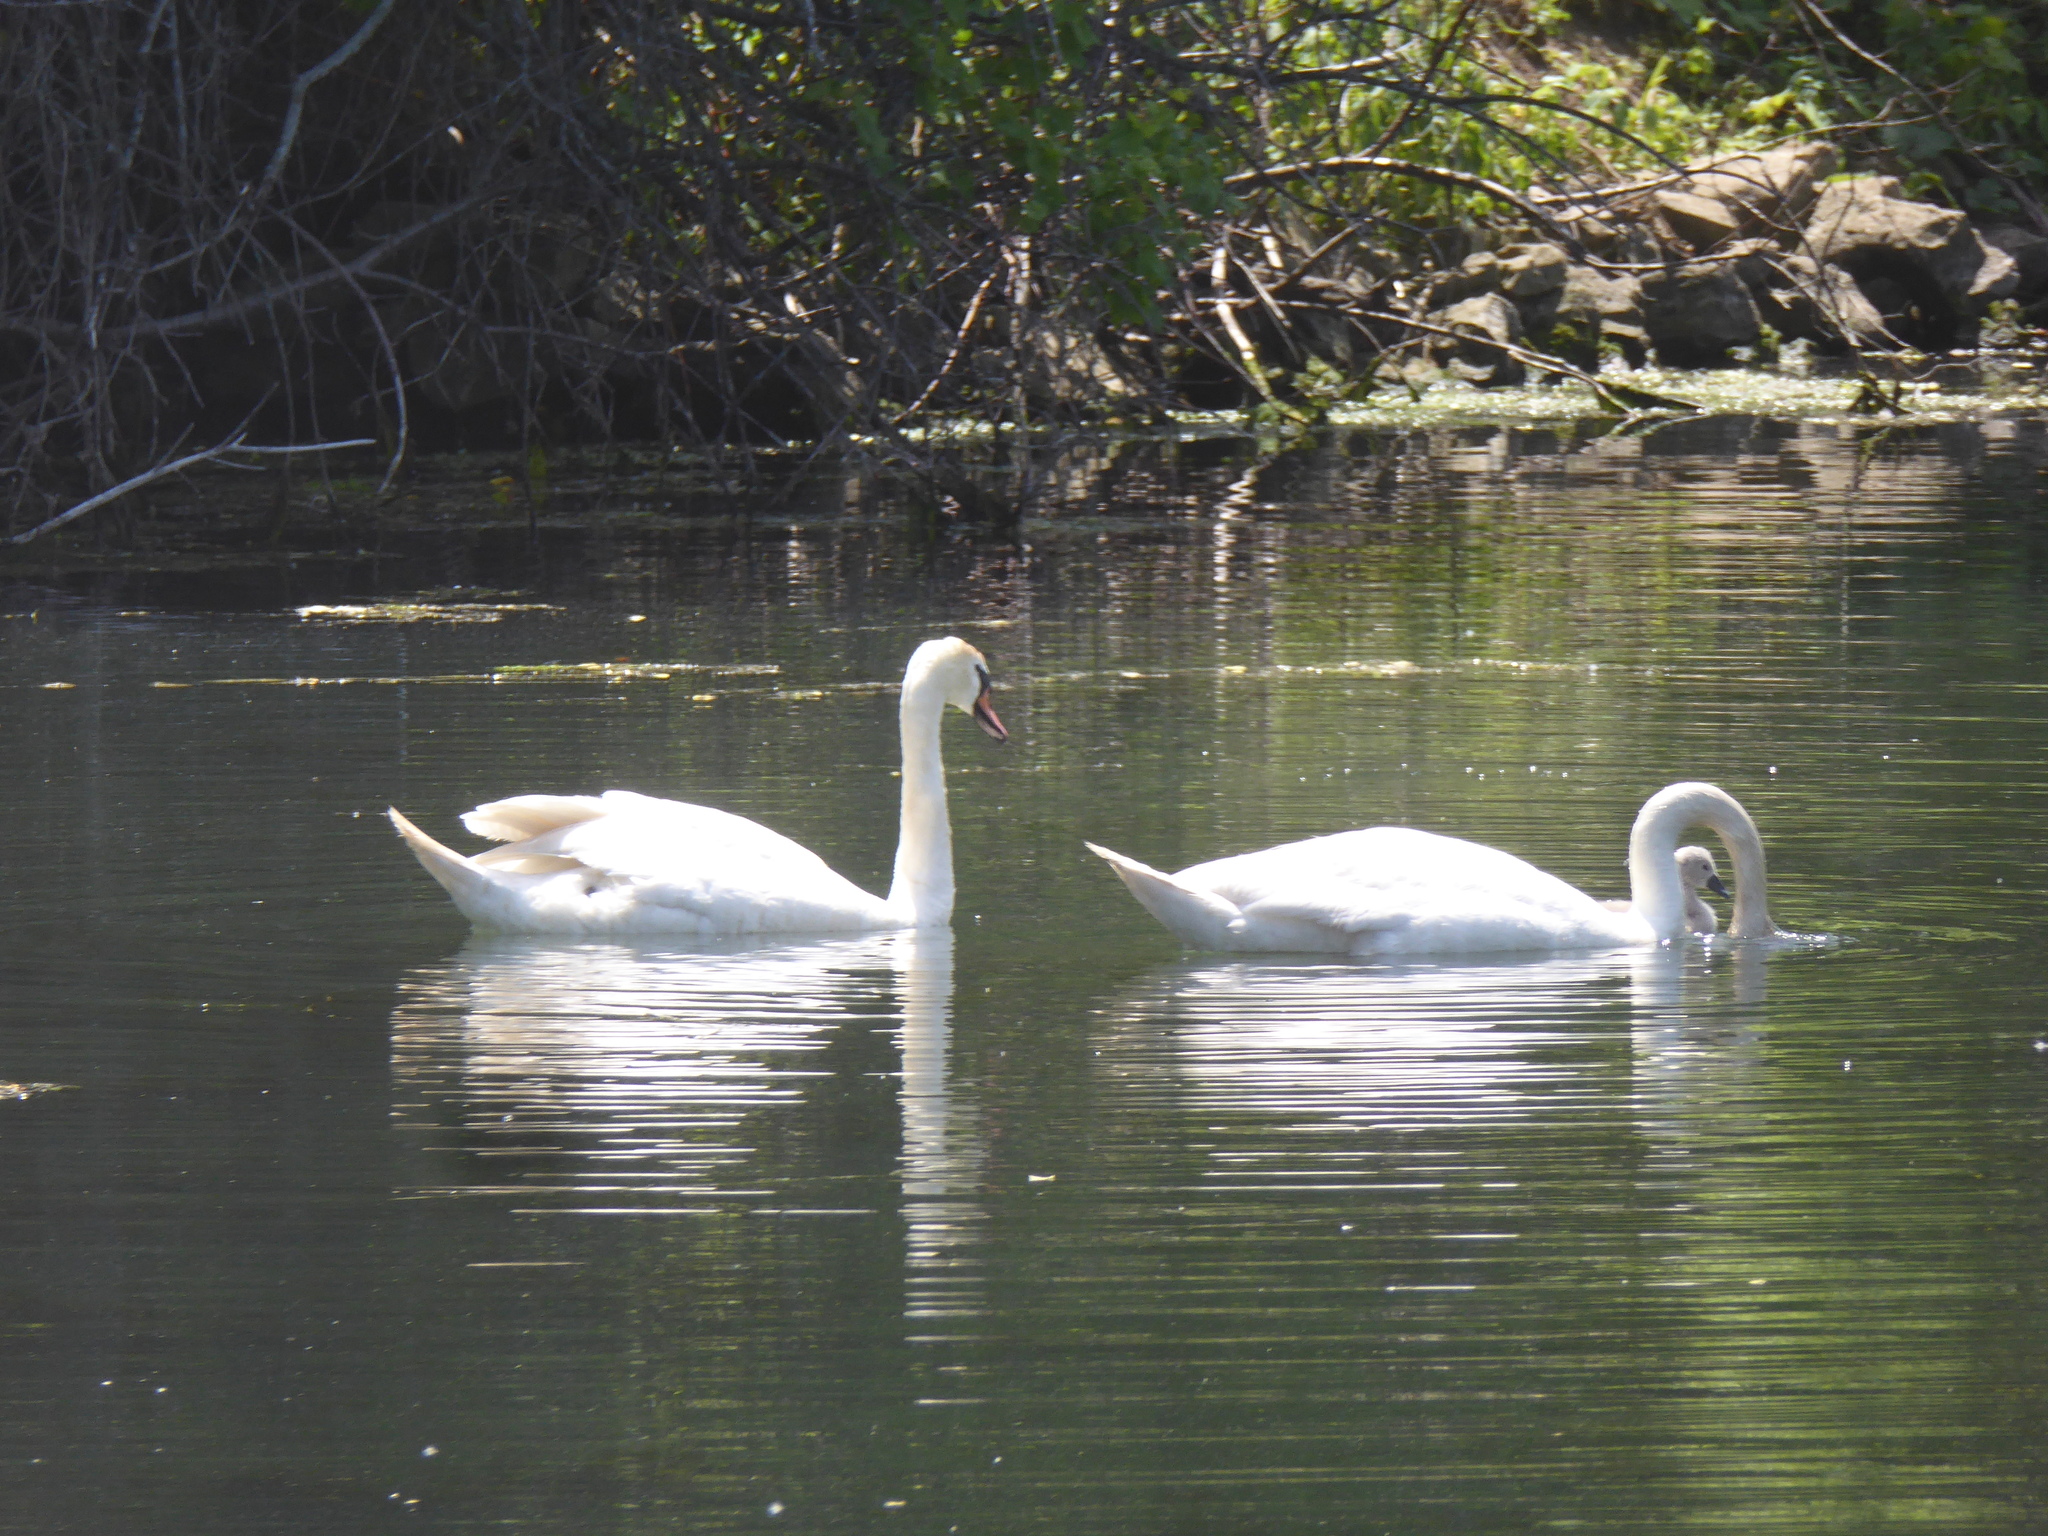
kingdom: Animalia
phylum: Chordata
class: Aves
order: Anseriformes
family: Anatidae
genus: Cygnus
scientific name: Cygnus olor
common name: Mute swan
